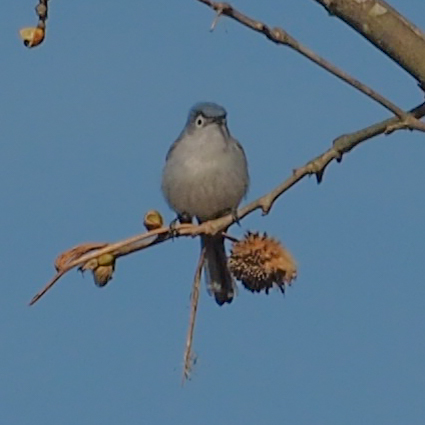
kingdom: Animalia
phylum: Chordata
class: Aves
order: Passeriformes
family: Polioptilidae
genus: Polioptila
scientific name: Polioptila caerulea
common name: Blue-gray gnatcatcher
